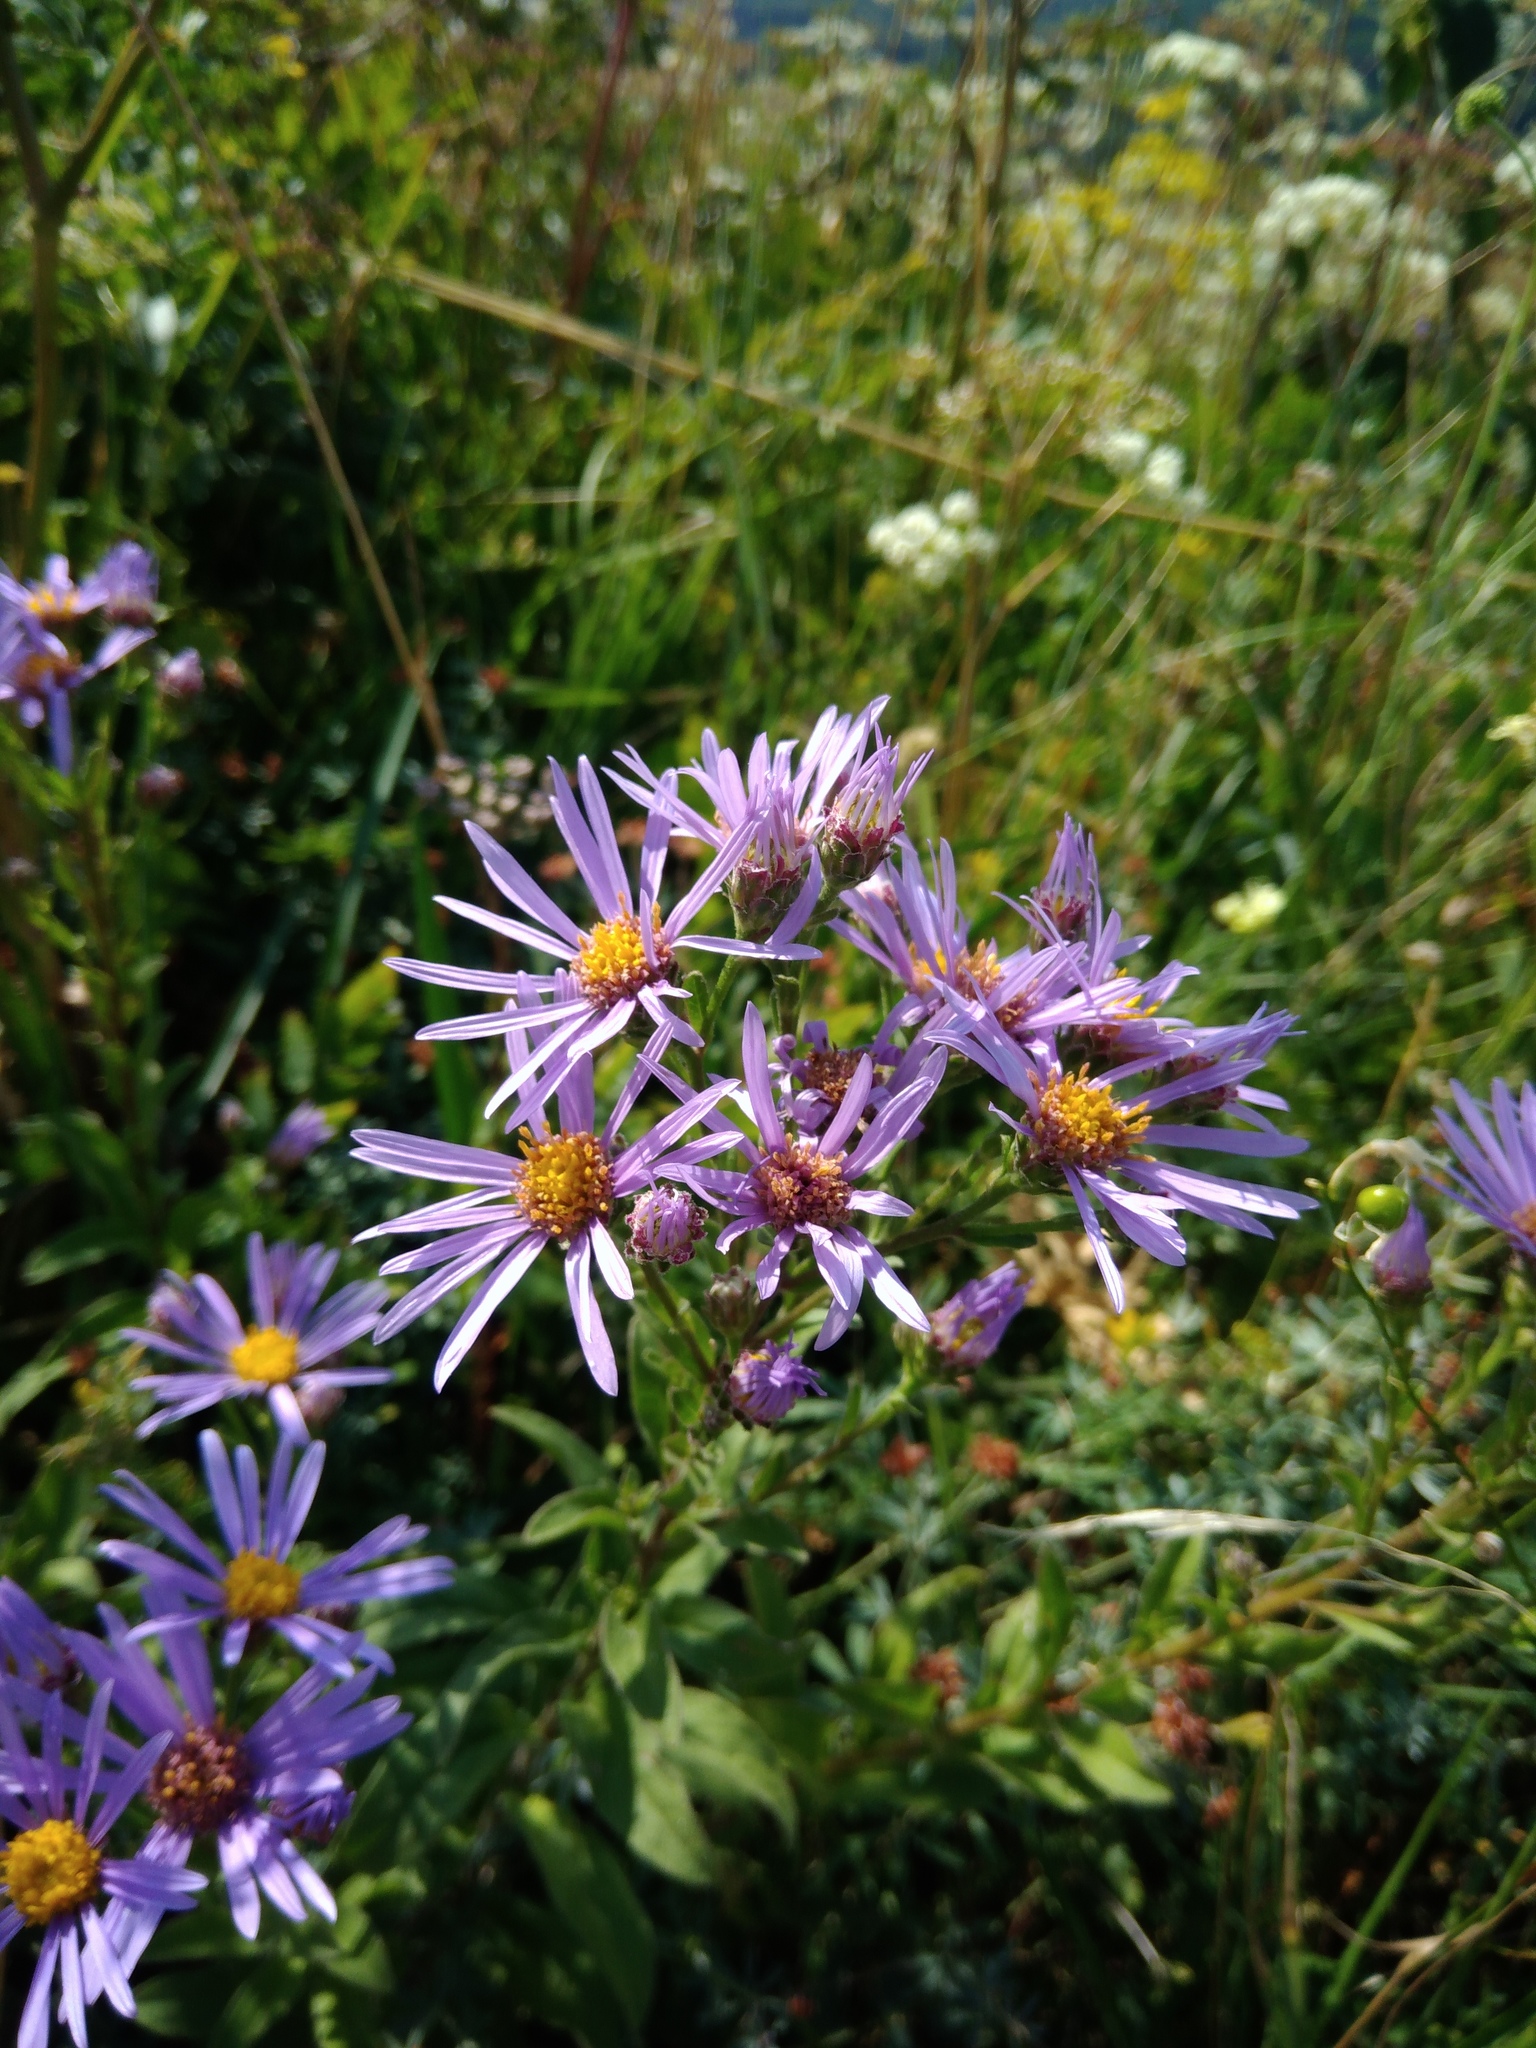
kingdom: Plantae
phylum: Tracheophyta
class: Magnoliopsida
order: Asterales
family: Asteraceae
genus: Aster
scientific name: Aster amellus
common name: European michaelmas daisy
